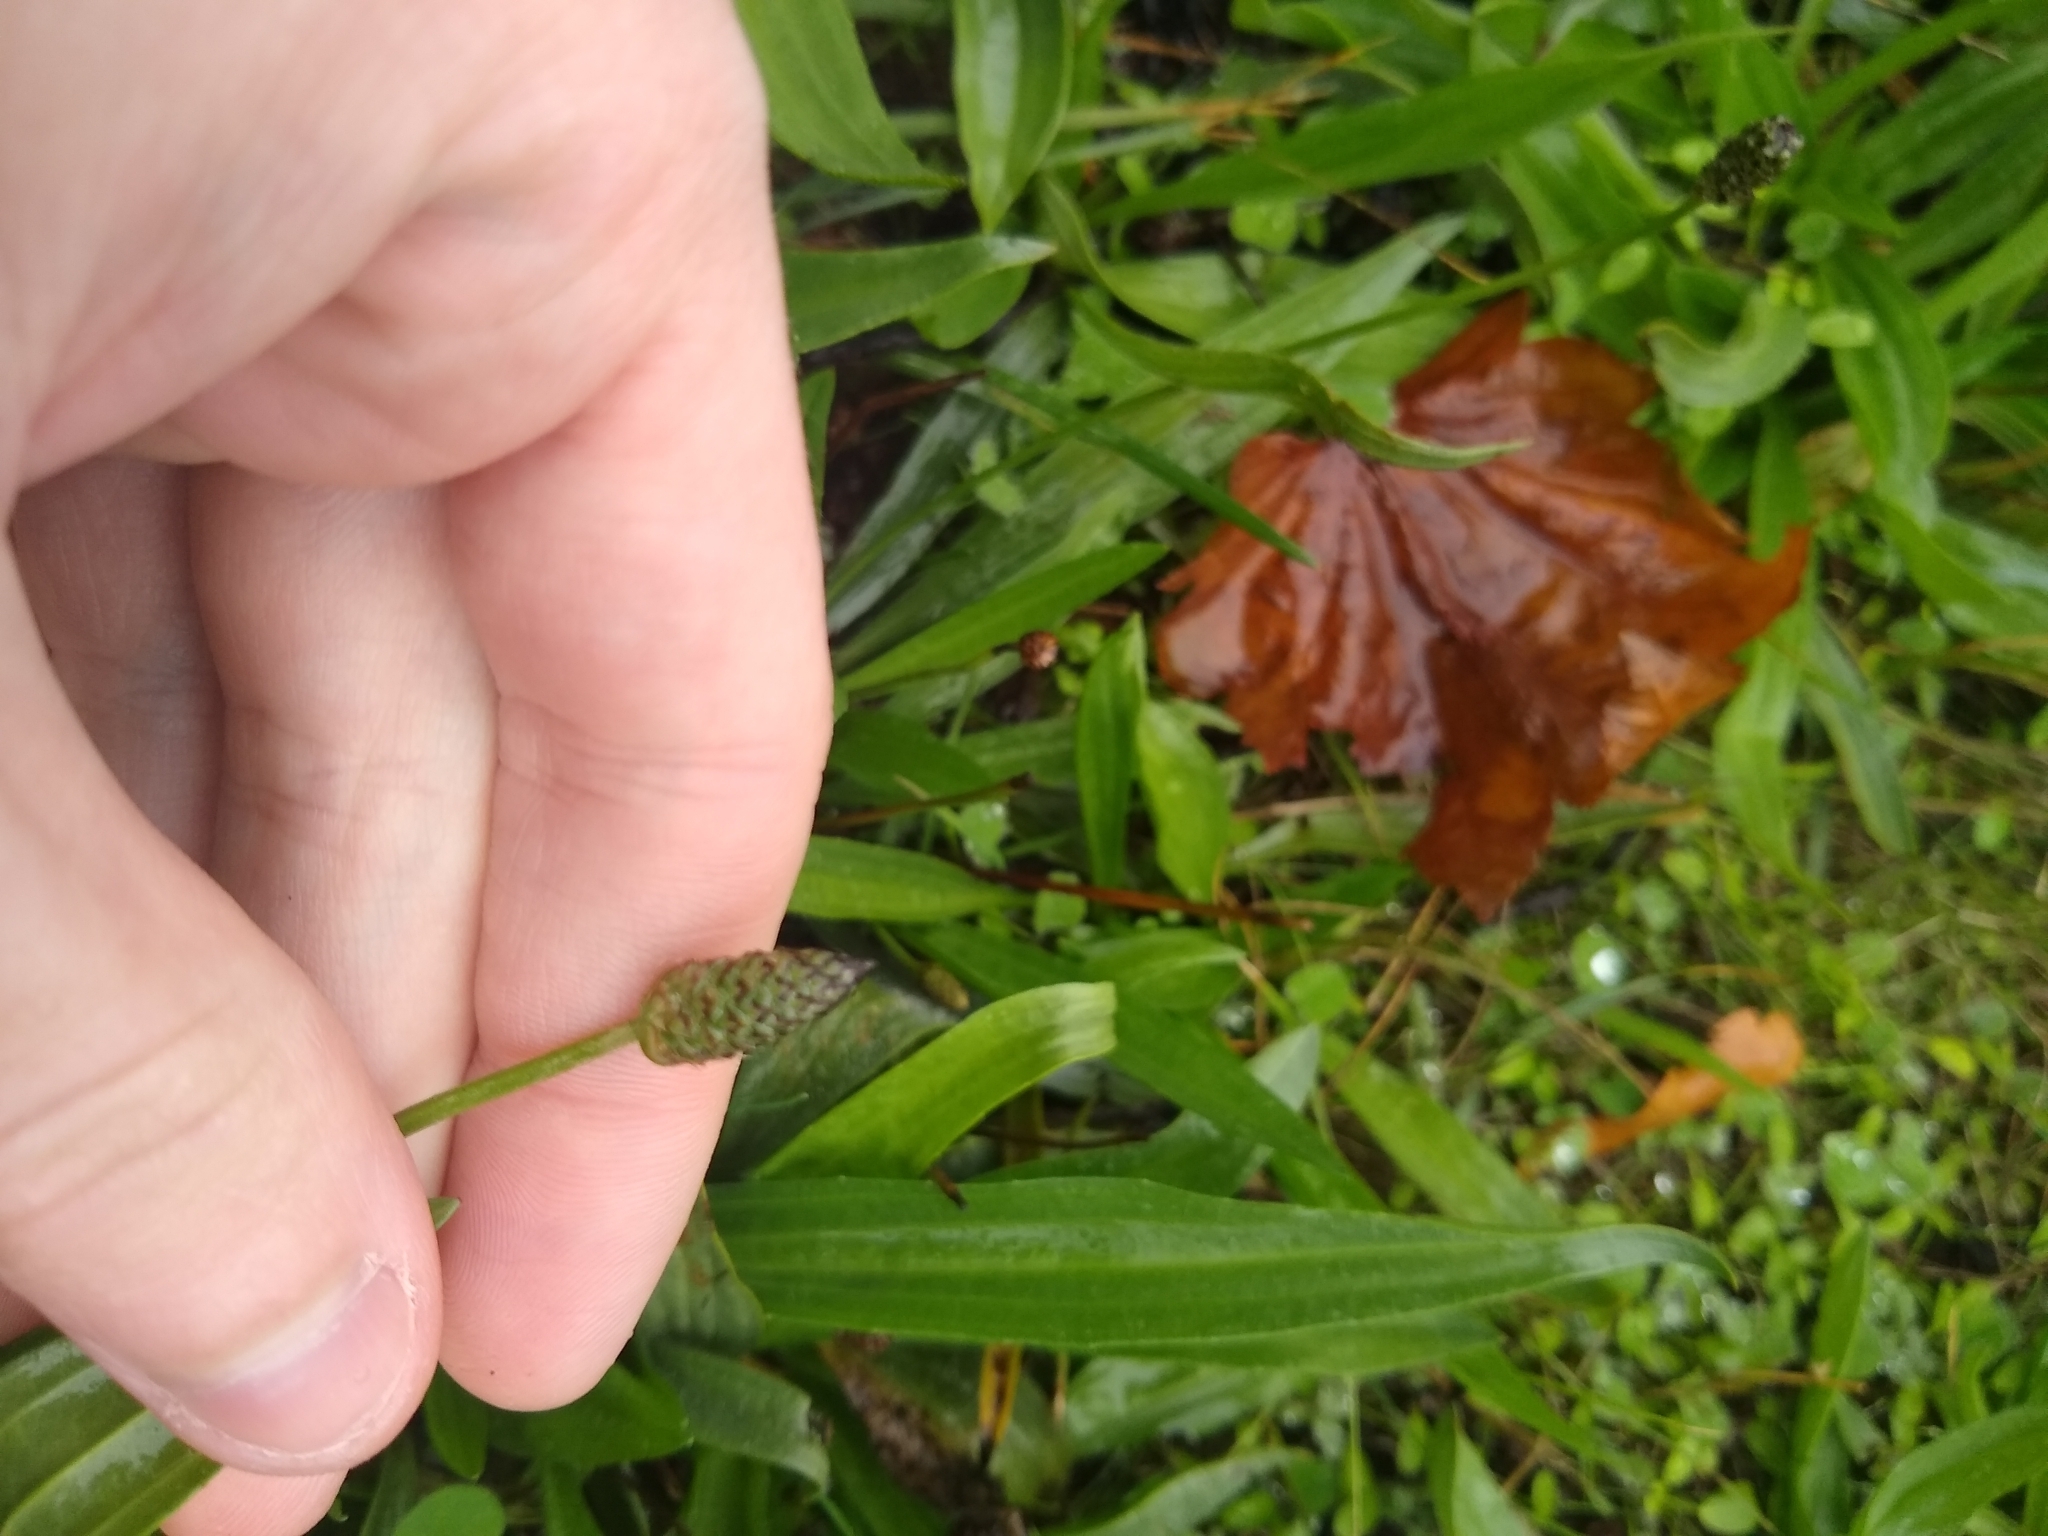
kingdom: Plantae
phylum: Tracheophyta
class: Magnoliopsida
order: Lamiales
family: Plantaginaceae
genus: Plantago
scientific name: Plantago lanceolata
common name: Ribwort plantain
